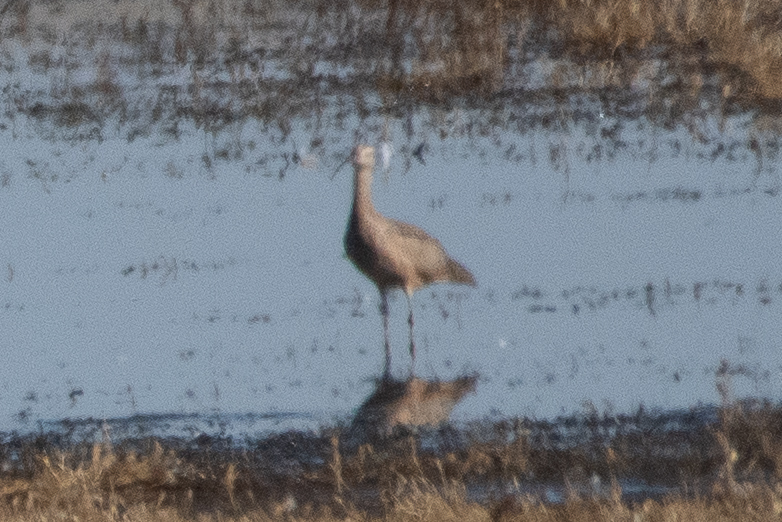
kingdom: Animalia
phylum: Chordata
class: Aves
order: Charadriiformes
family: Scolopacidae
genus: Numenius
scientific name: Numenius americanus
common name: Long-billed curlew
